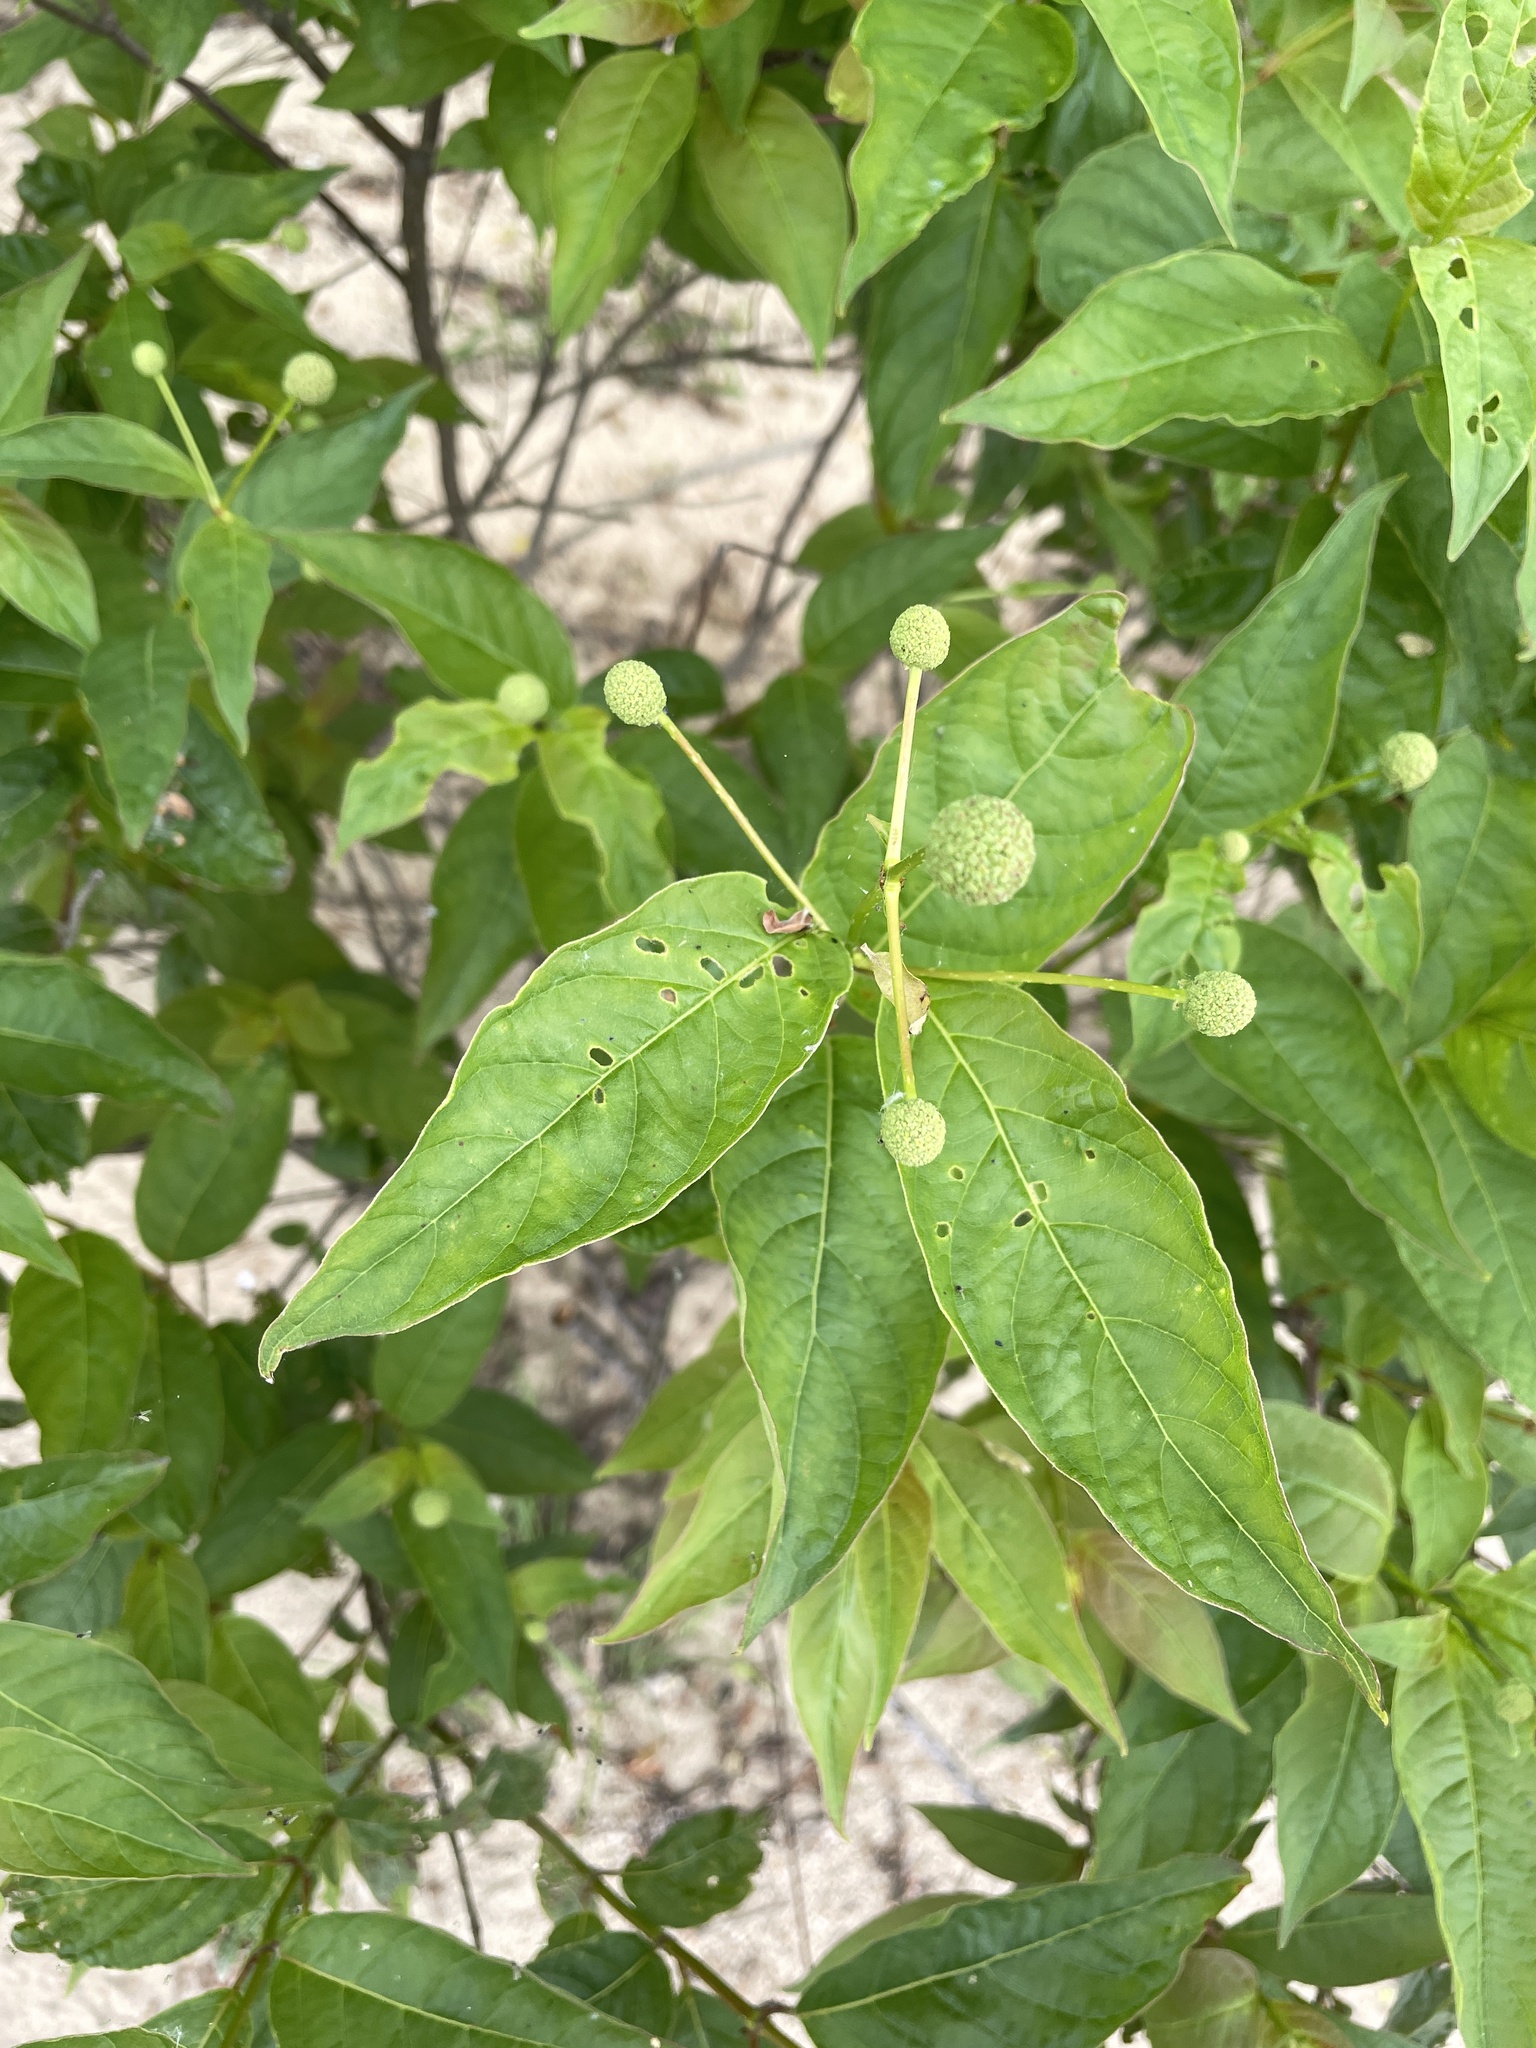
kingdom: Plantae
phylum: Tracheophyta
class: Magnoliopsida
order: Gentianales
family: Rubiaceae
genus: Cephalanthus
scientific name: Cephalanthus occidentalis
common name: Button-willow
